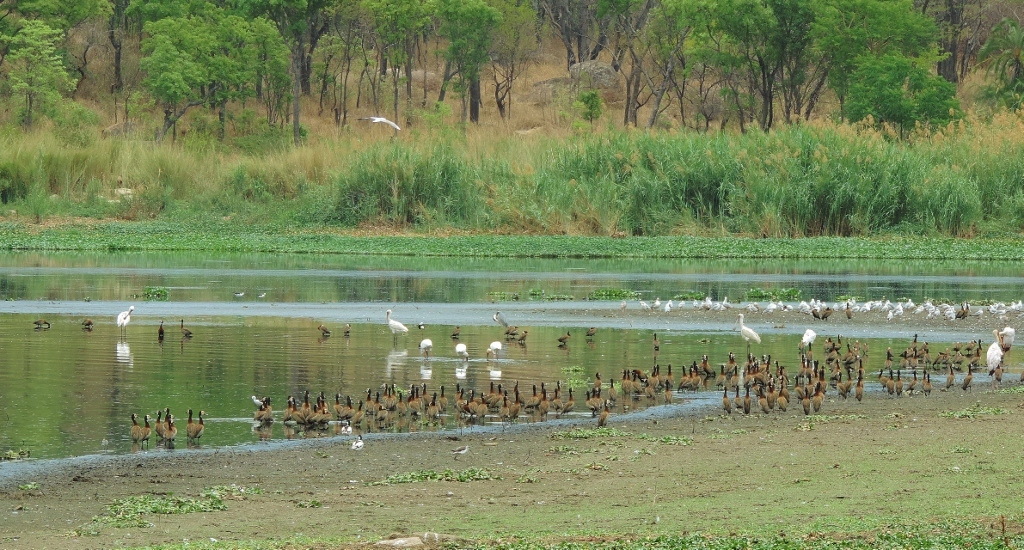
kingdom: Animalia
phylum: Chordata
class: Aves
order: Anseriformes
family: Anatidae
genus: Dendrocygna
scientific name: Dendrocygna viduata
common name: White-faced whistling duck
